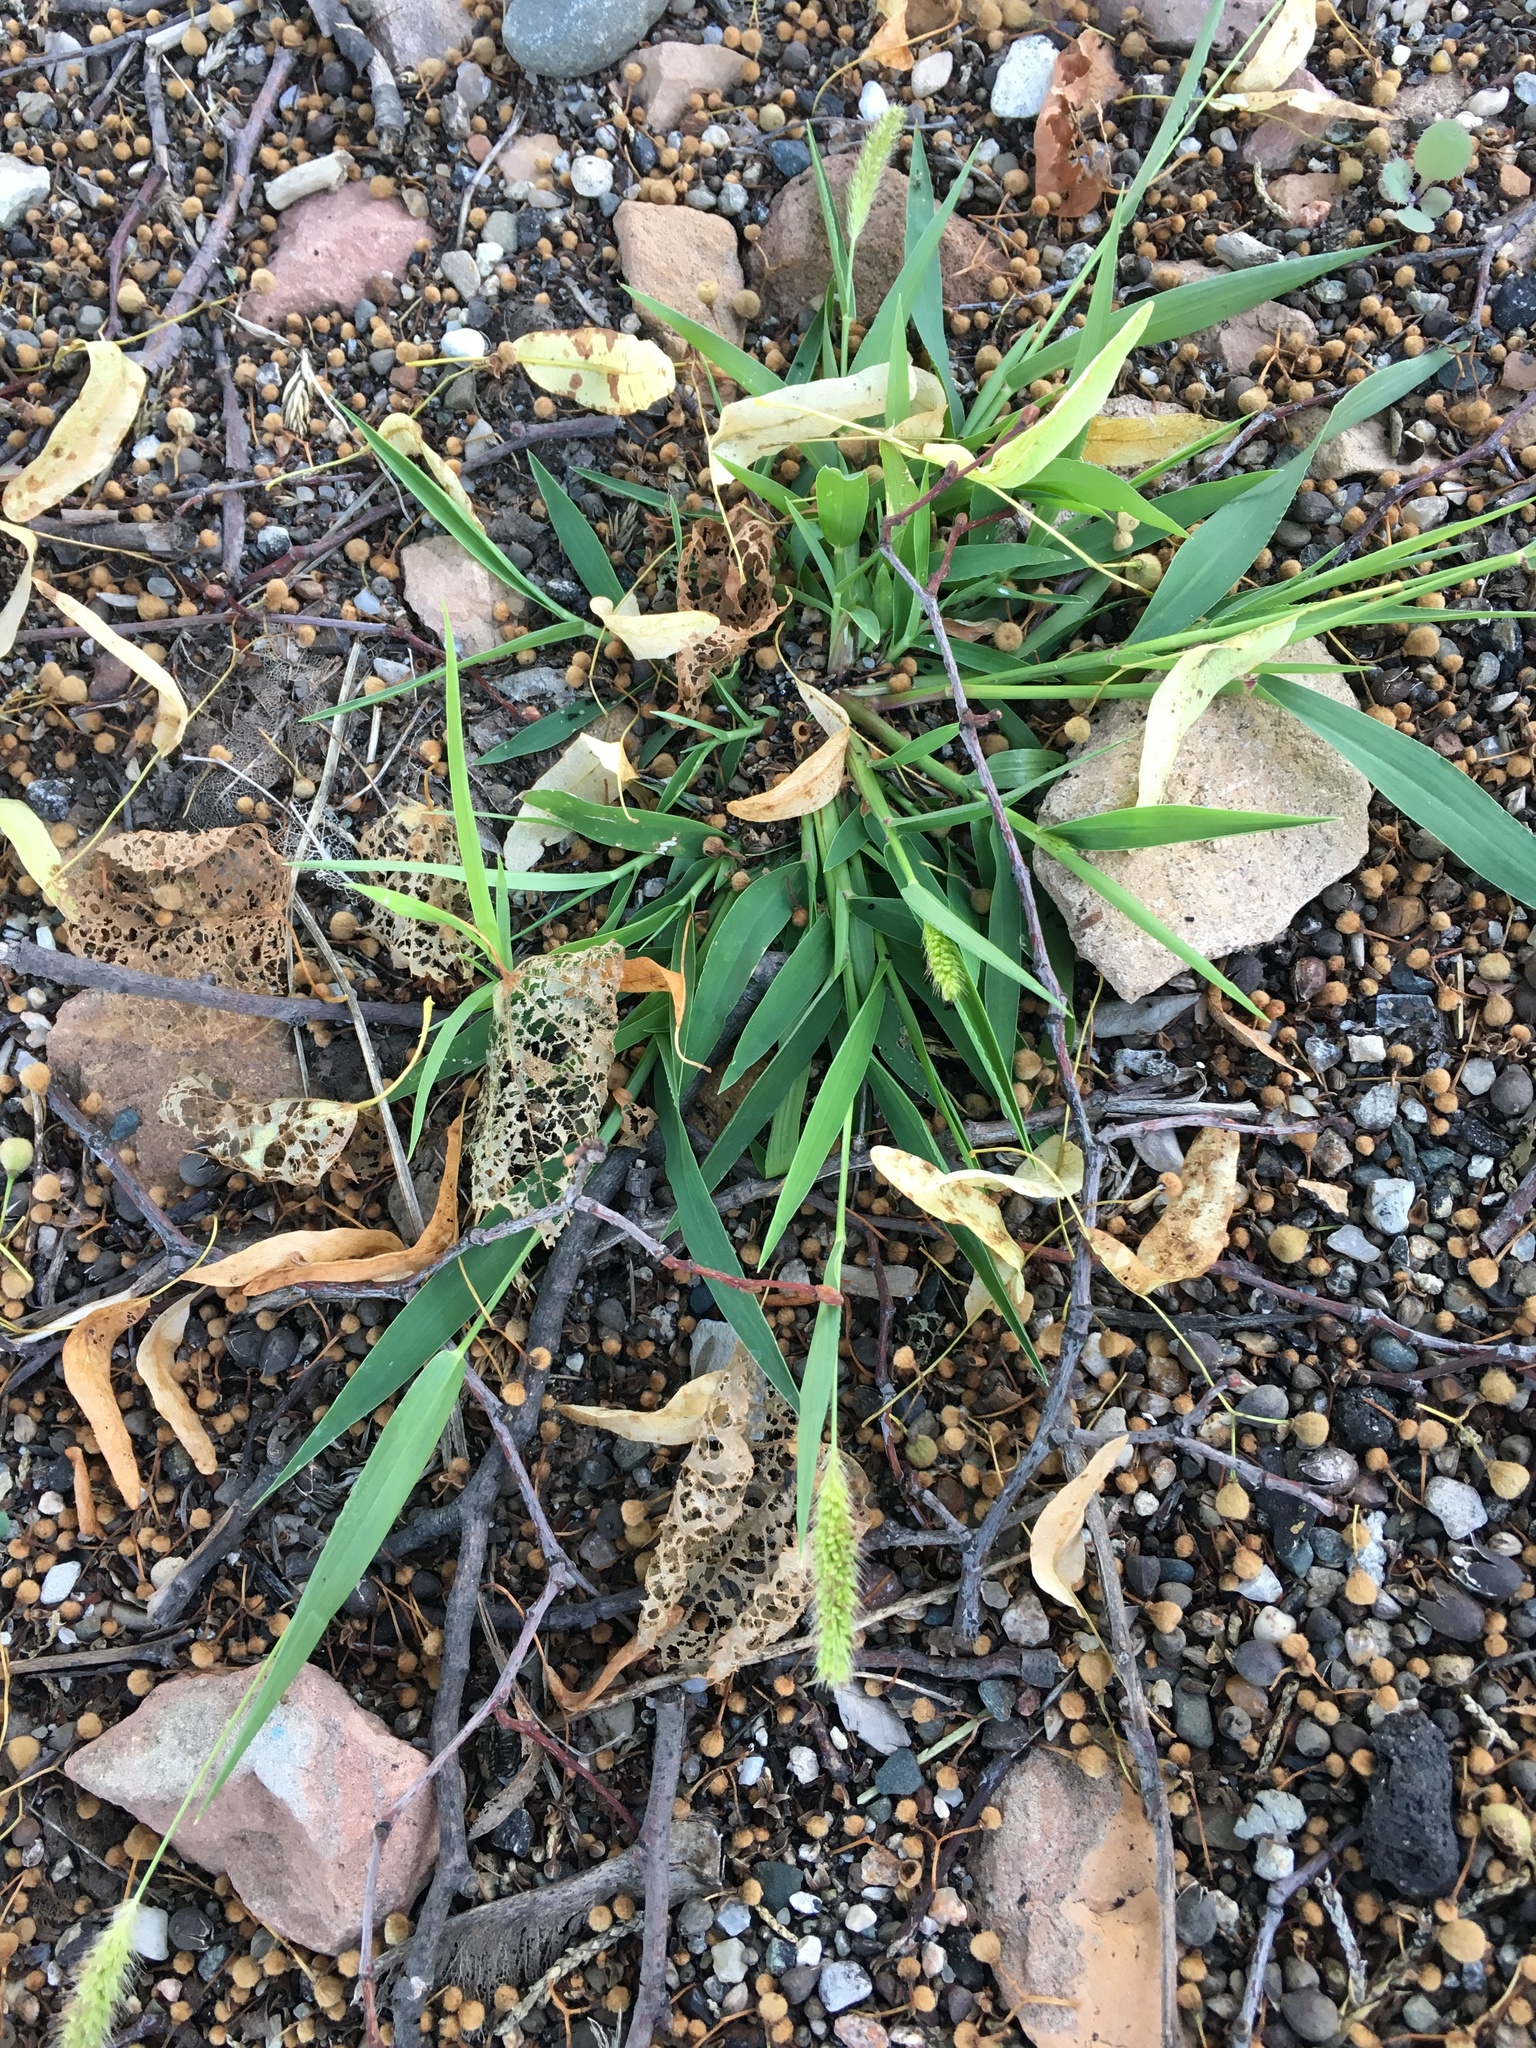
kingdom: Plantae
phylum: Tracheophyta
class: Liliopsida
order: Poales
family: Poaceae
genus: Setaria
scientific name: Setaria viridis
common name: Green bristlegrass
